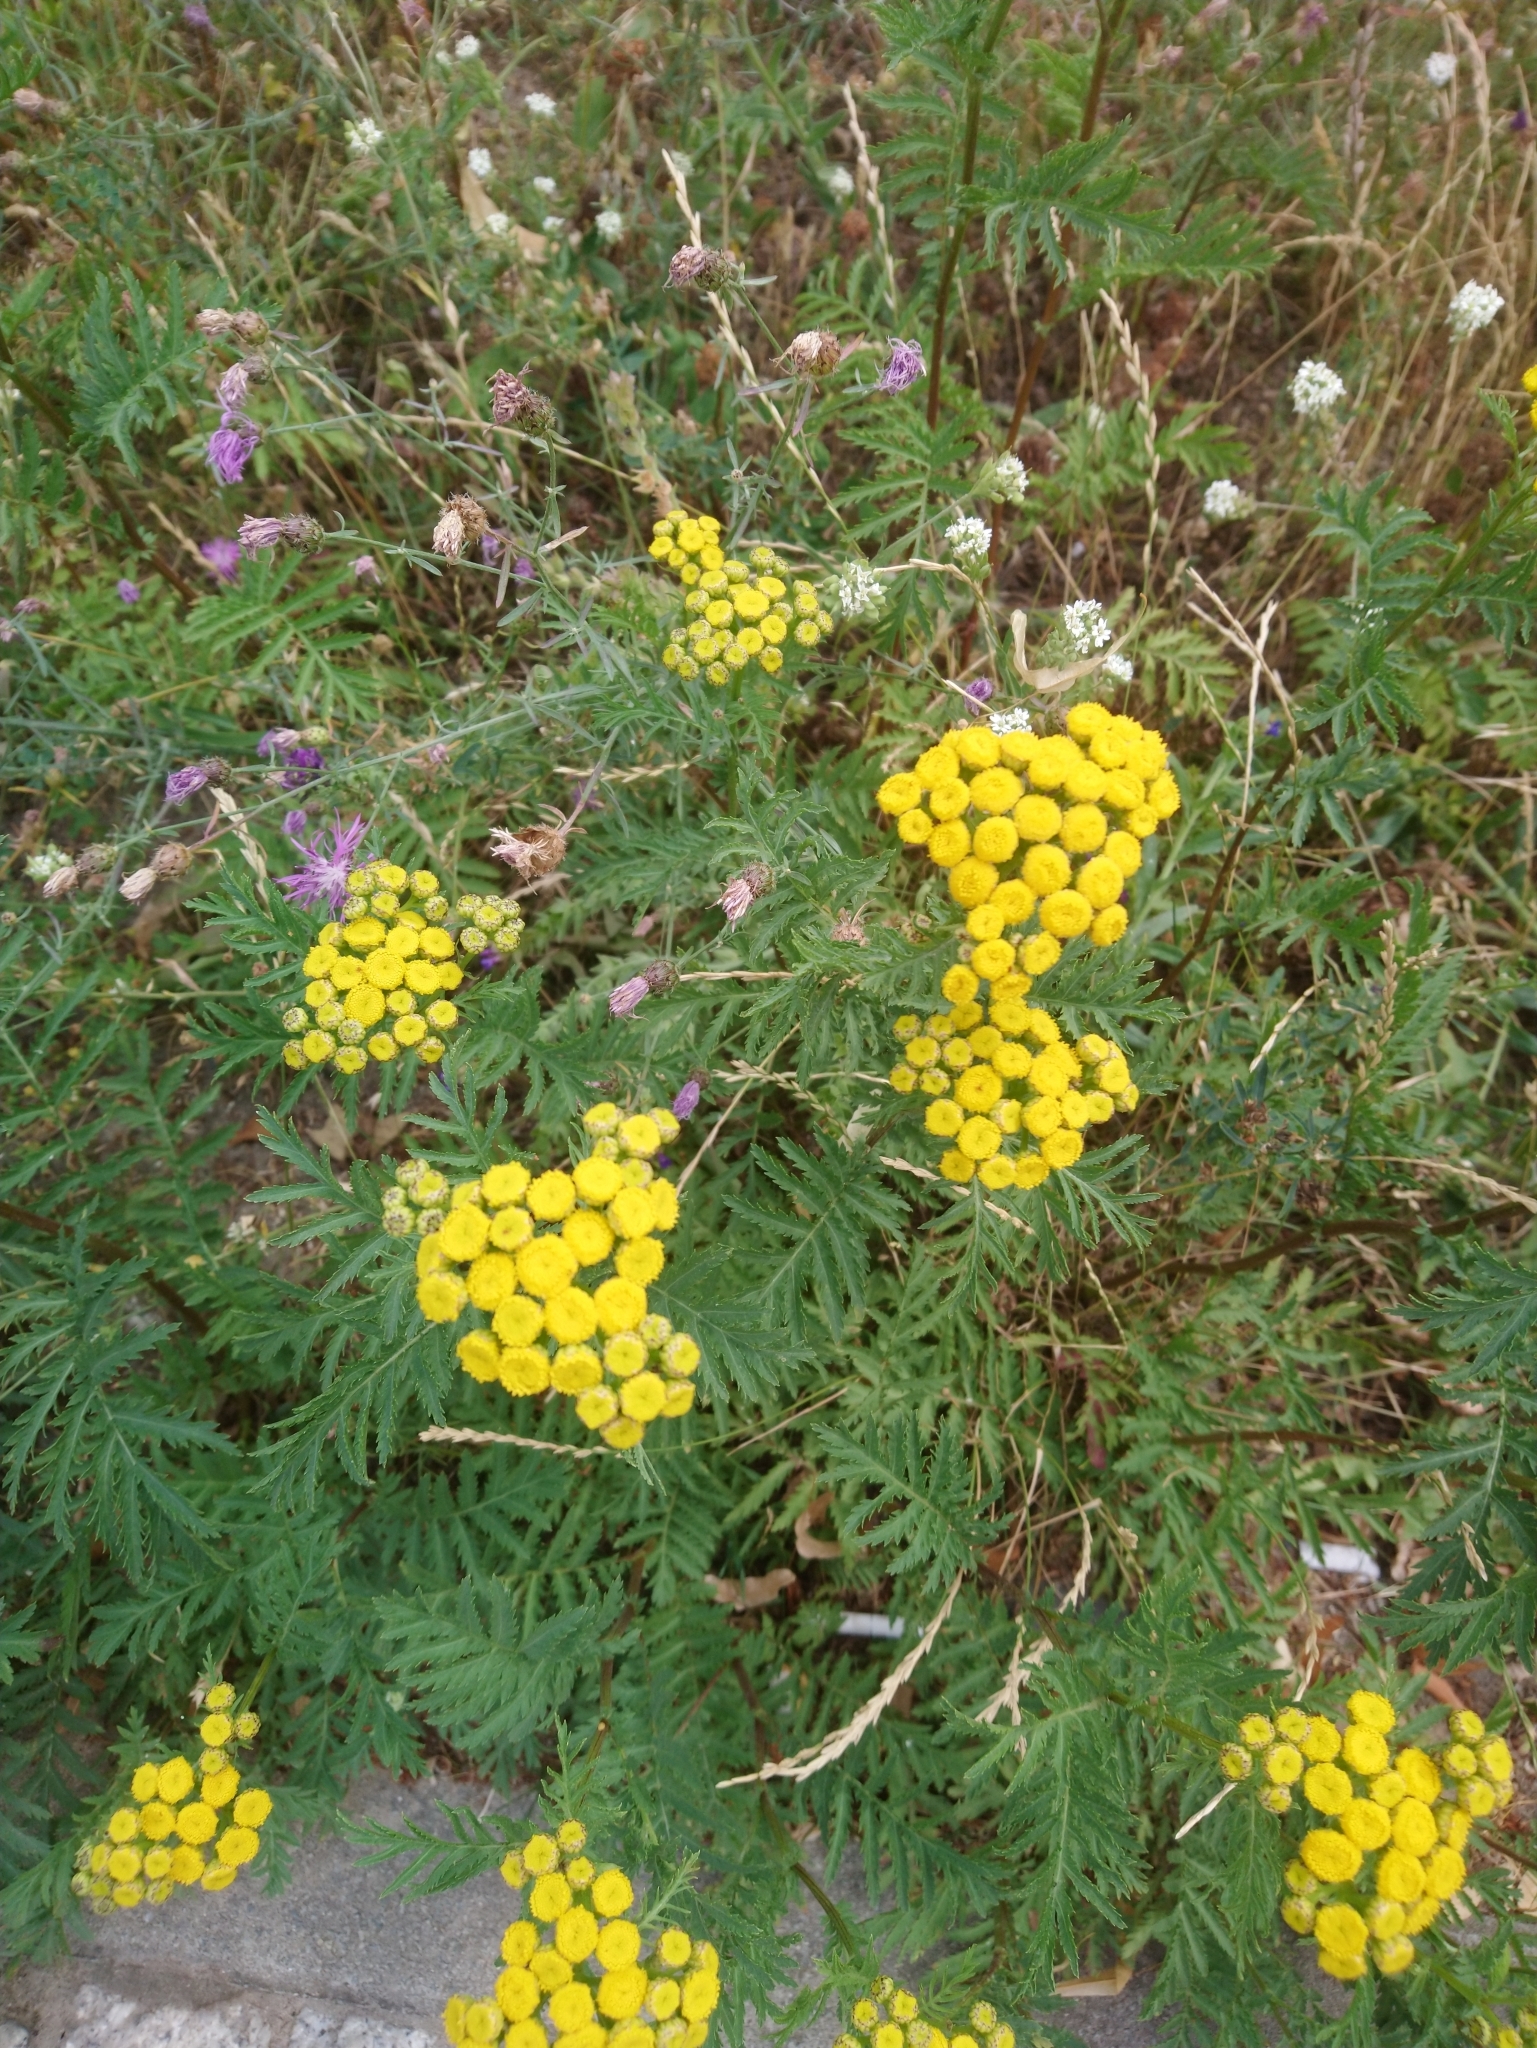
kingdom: Plantae
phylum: Tracheophyta
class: Magnoliopsida
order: Asterales
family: Asteraceae
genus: Tanacetum
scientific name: Tanacetum vulgare
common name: Common tansy
